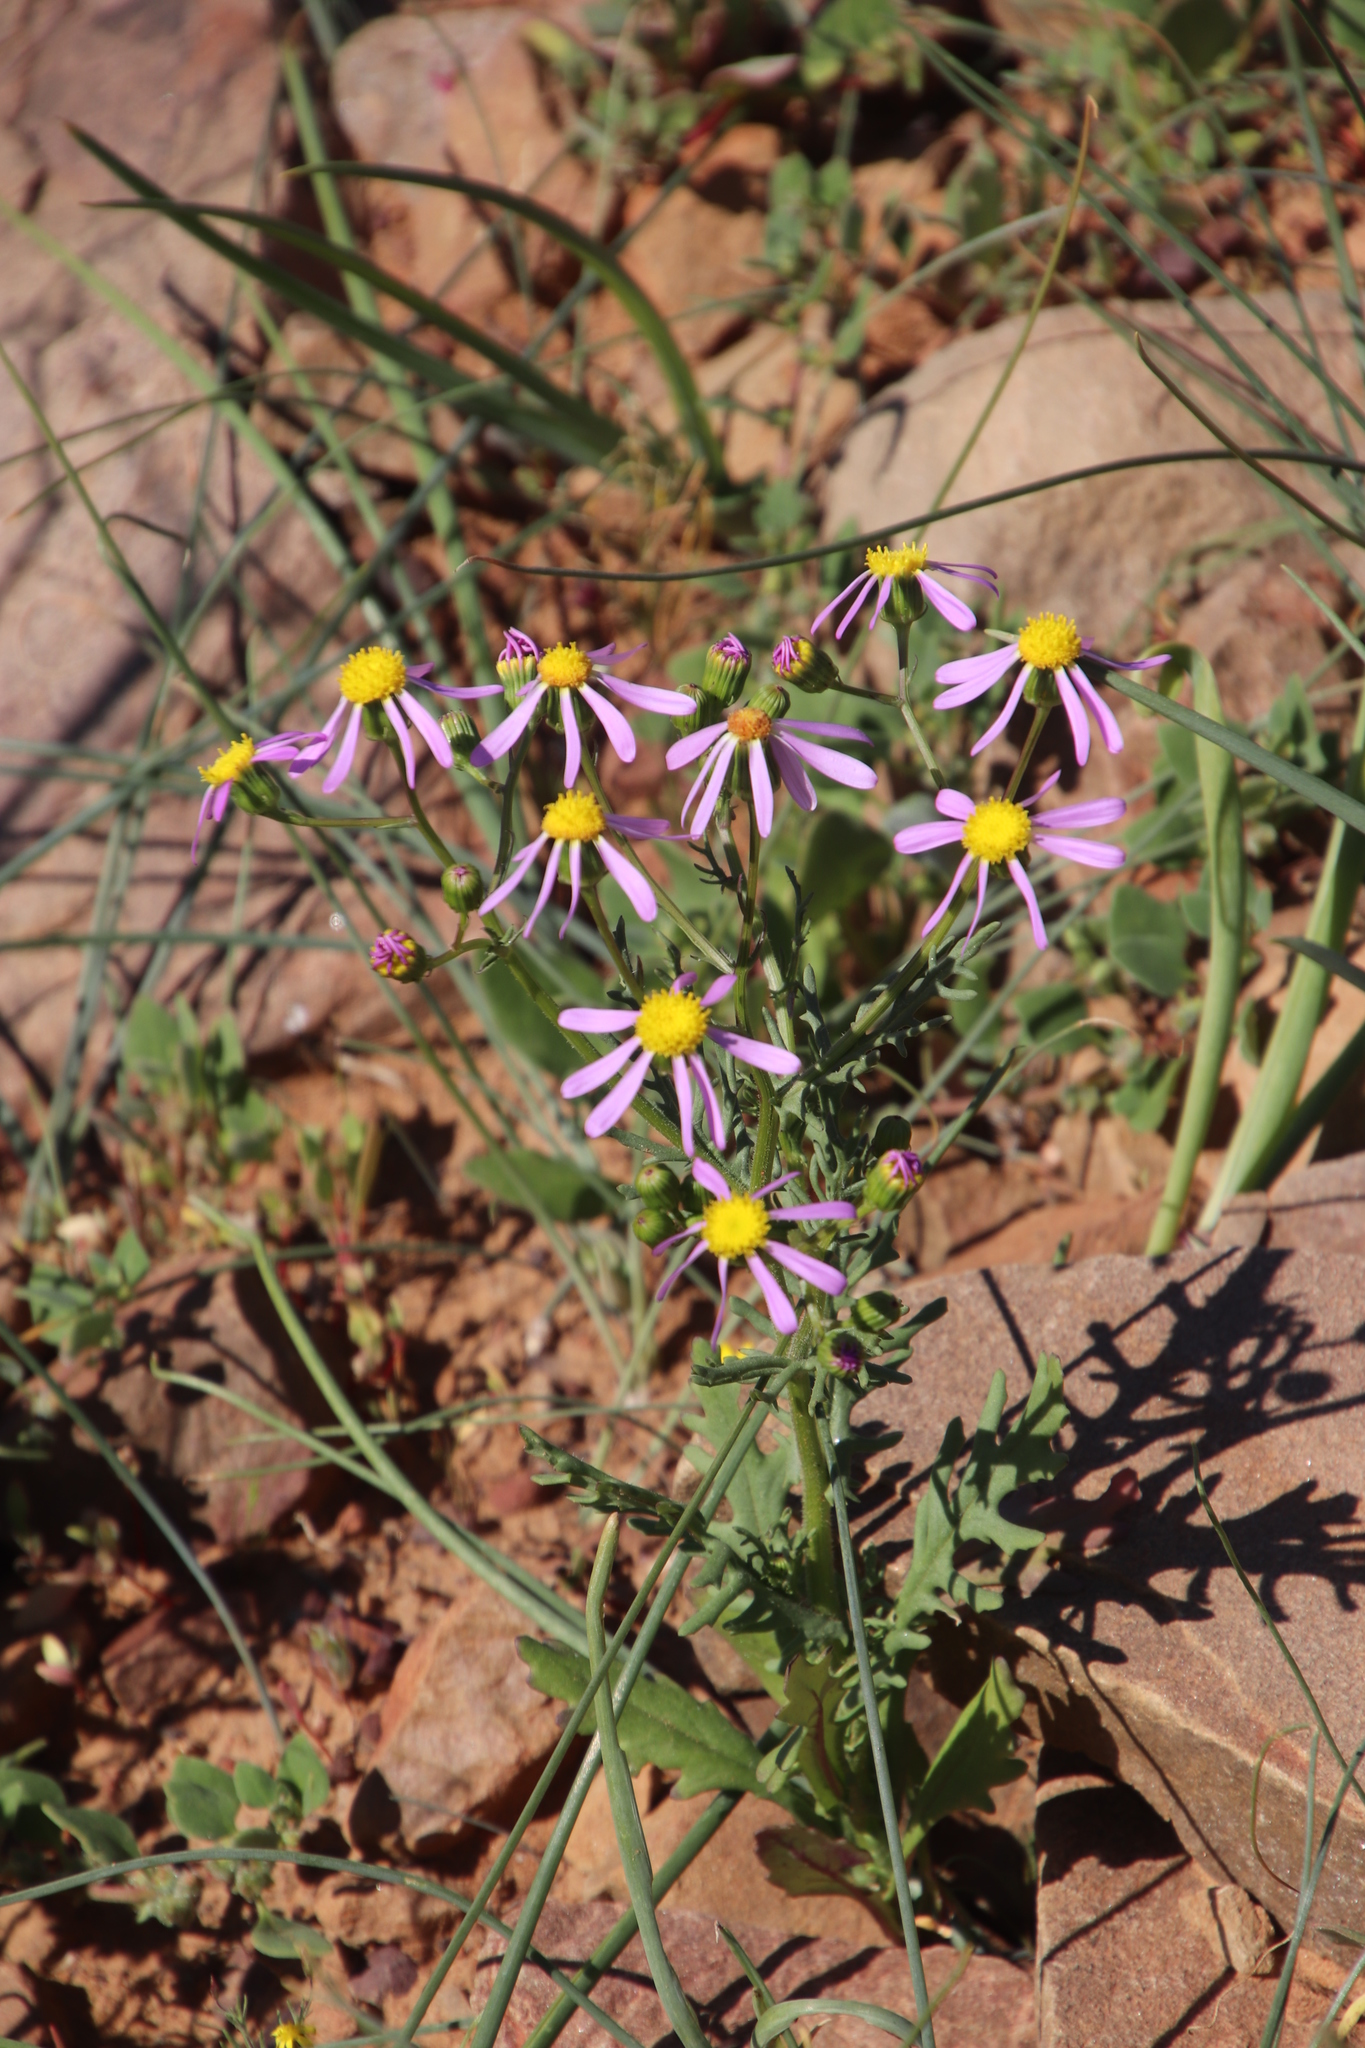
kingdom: Plantae
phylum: Tracheophyta
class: Magnoliopsida
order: Asterales
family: Asteraceae
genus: Senecio
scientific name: Senecio arenarius
